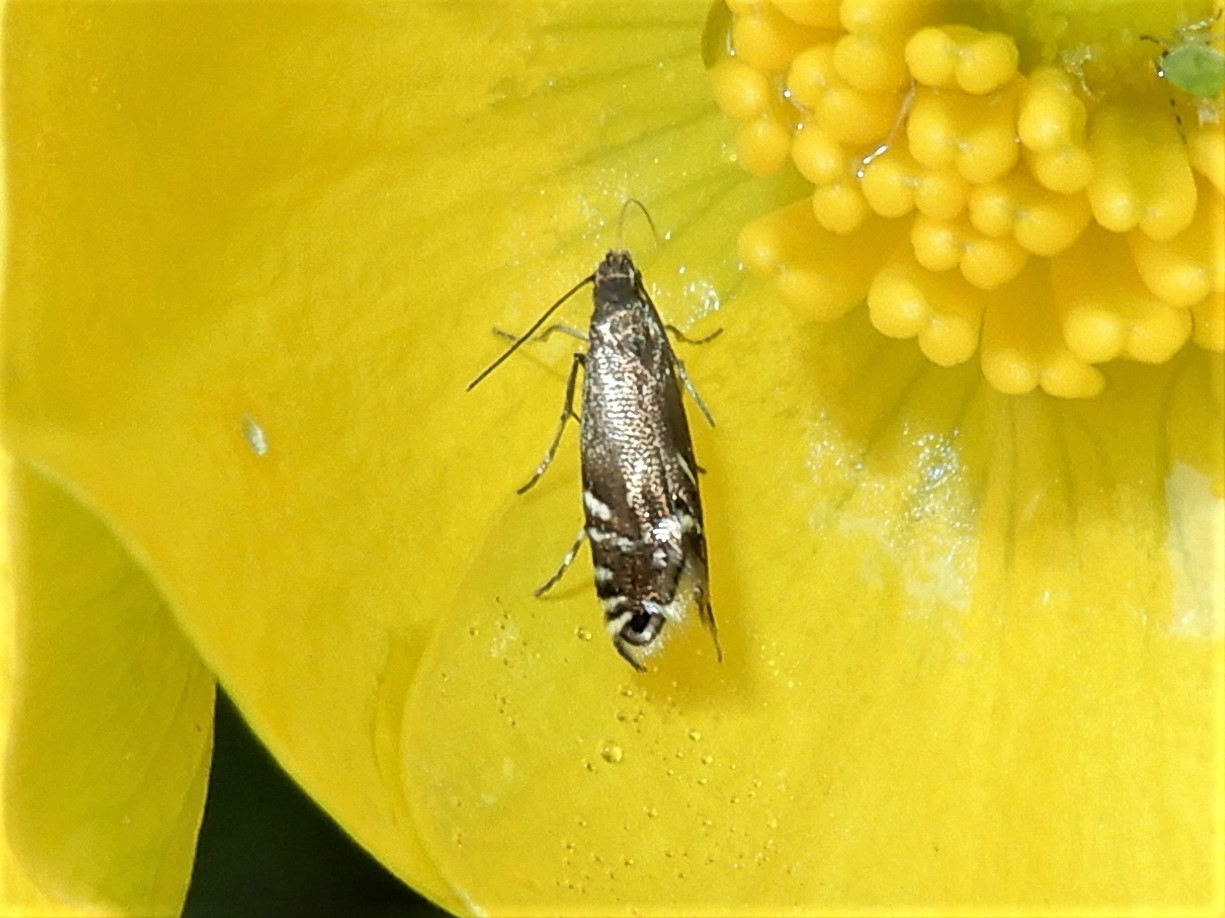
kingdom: Animalia
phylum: Arthropoda
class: Insecta
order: Lepidoptera
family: Glyphipterigidae
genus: Glyphipterix
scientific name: Glyphipterix simpliciella
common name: Cocksfoot moth
